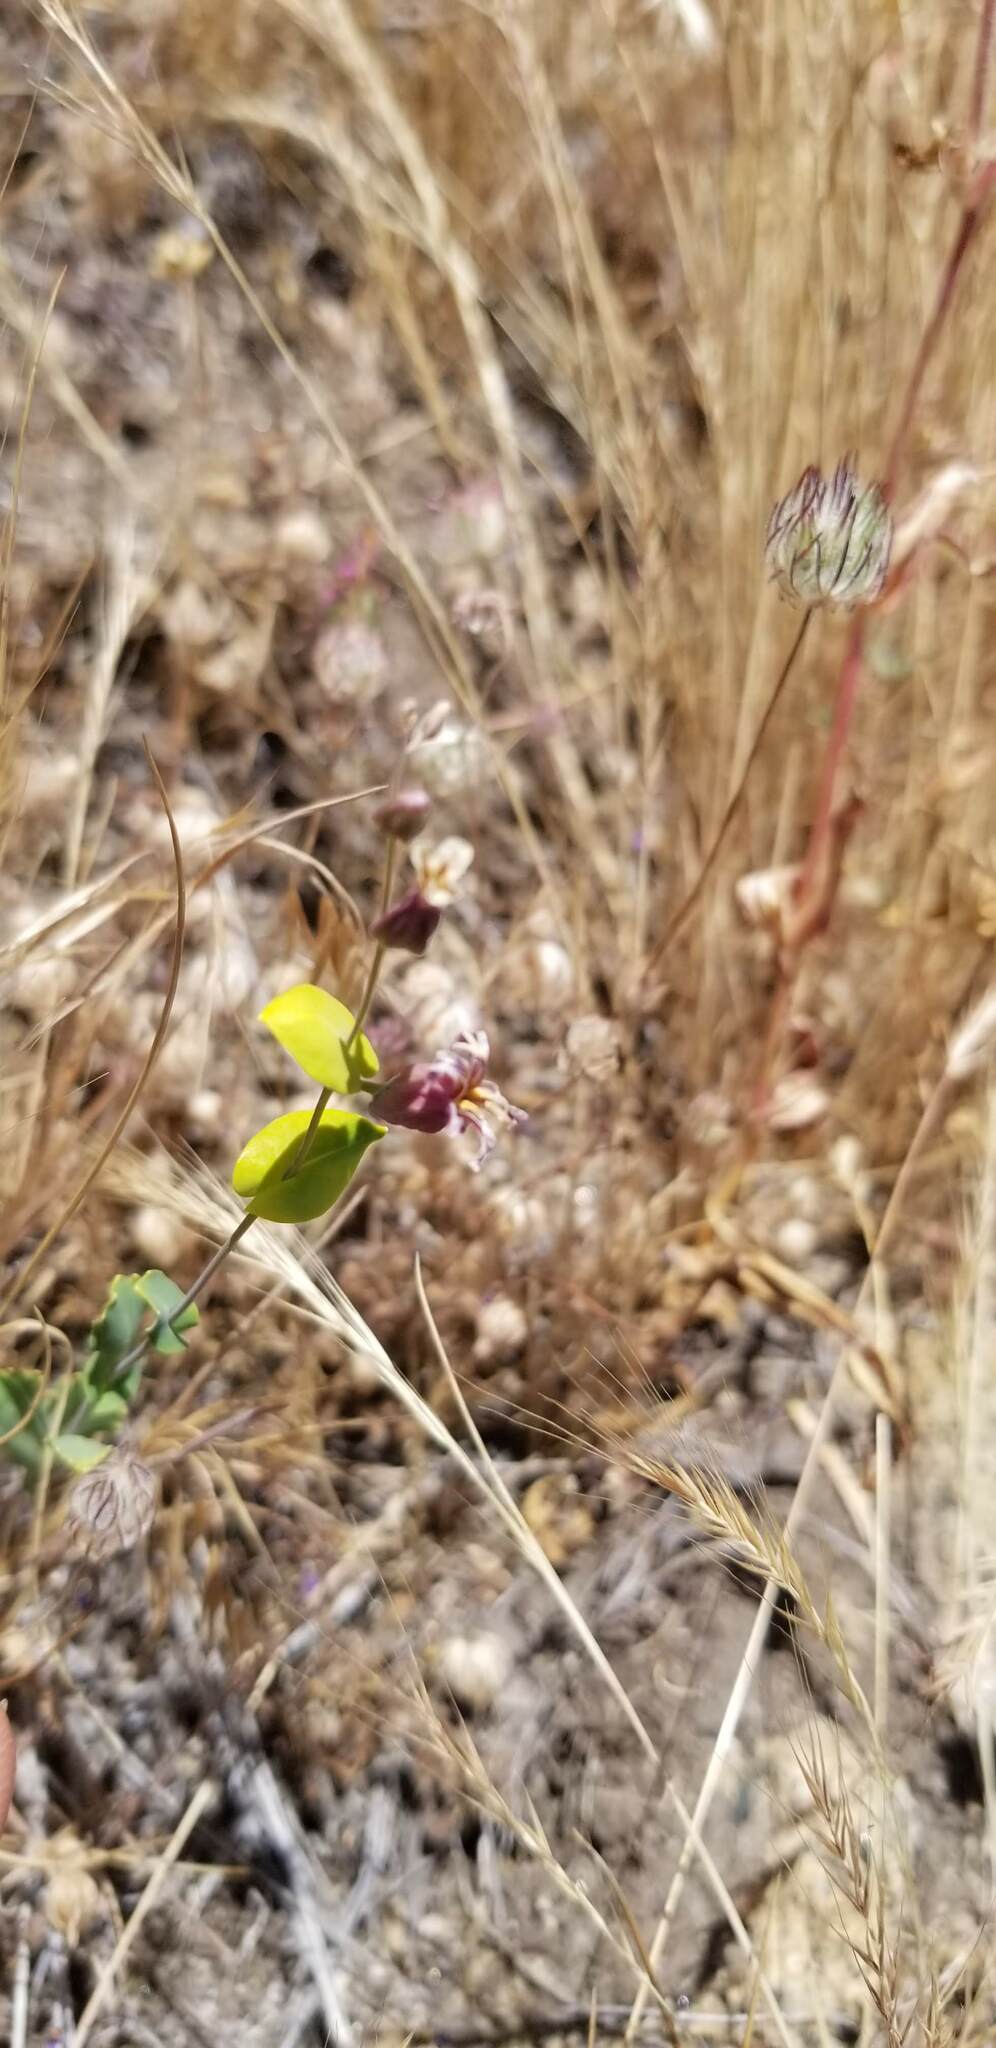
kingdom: Plantae
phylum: Tracheophyta
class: Magnoliopsida
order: Brassicales
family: Brassicaceae
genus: Streptanthus
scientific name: Streptanthus tortuosus
